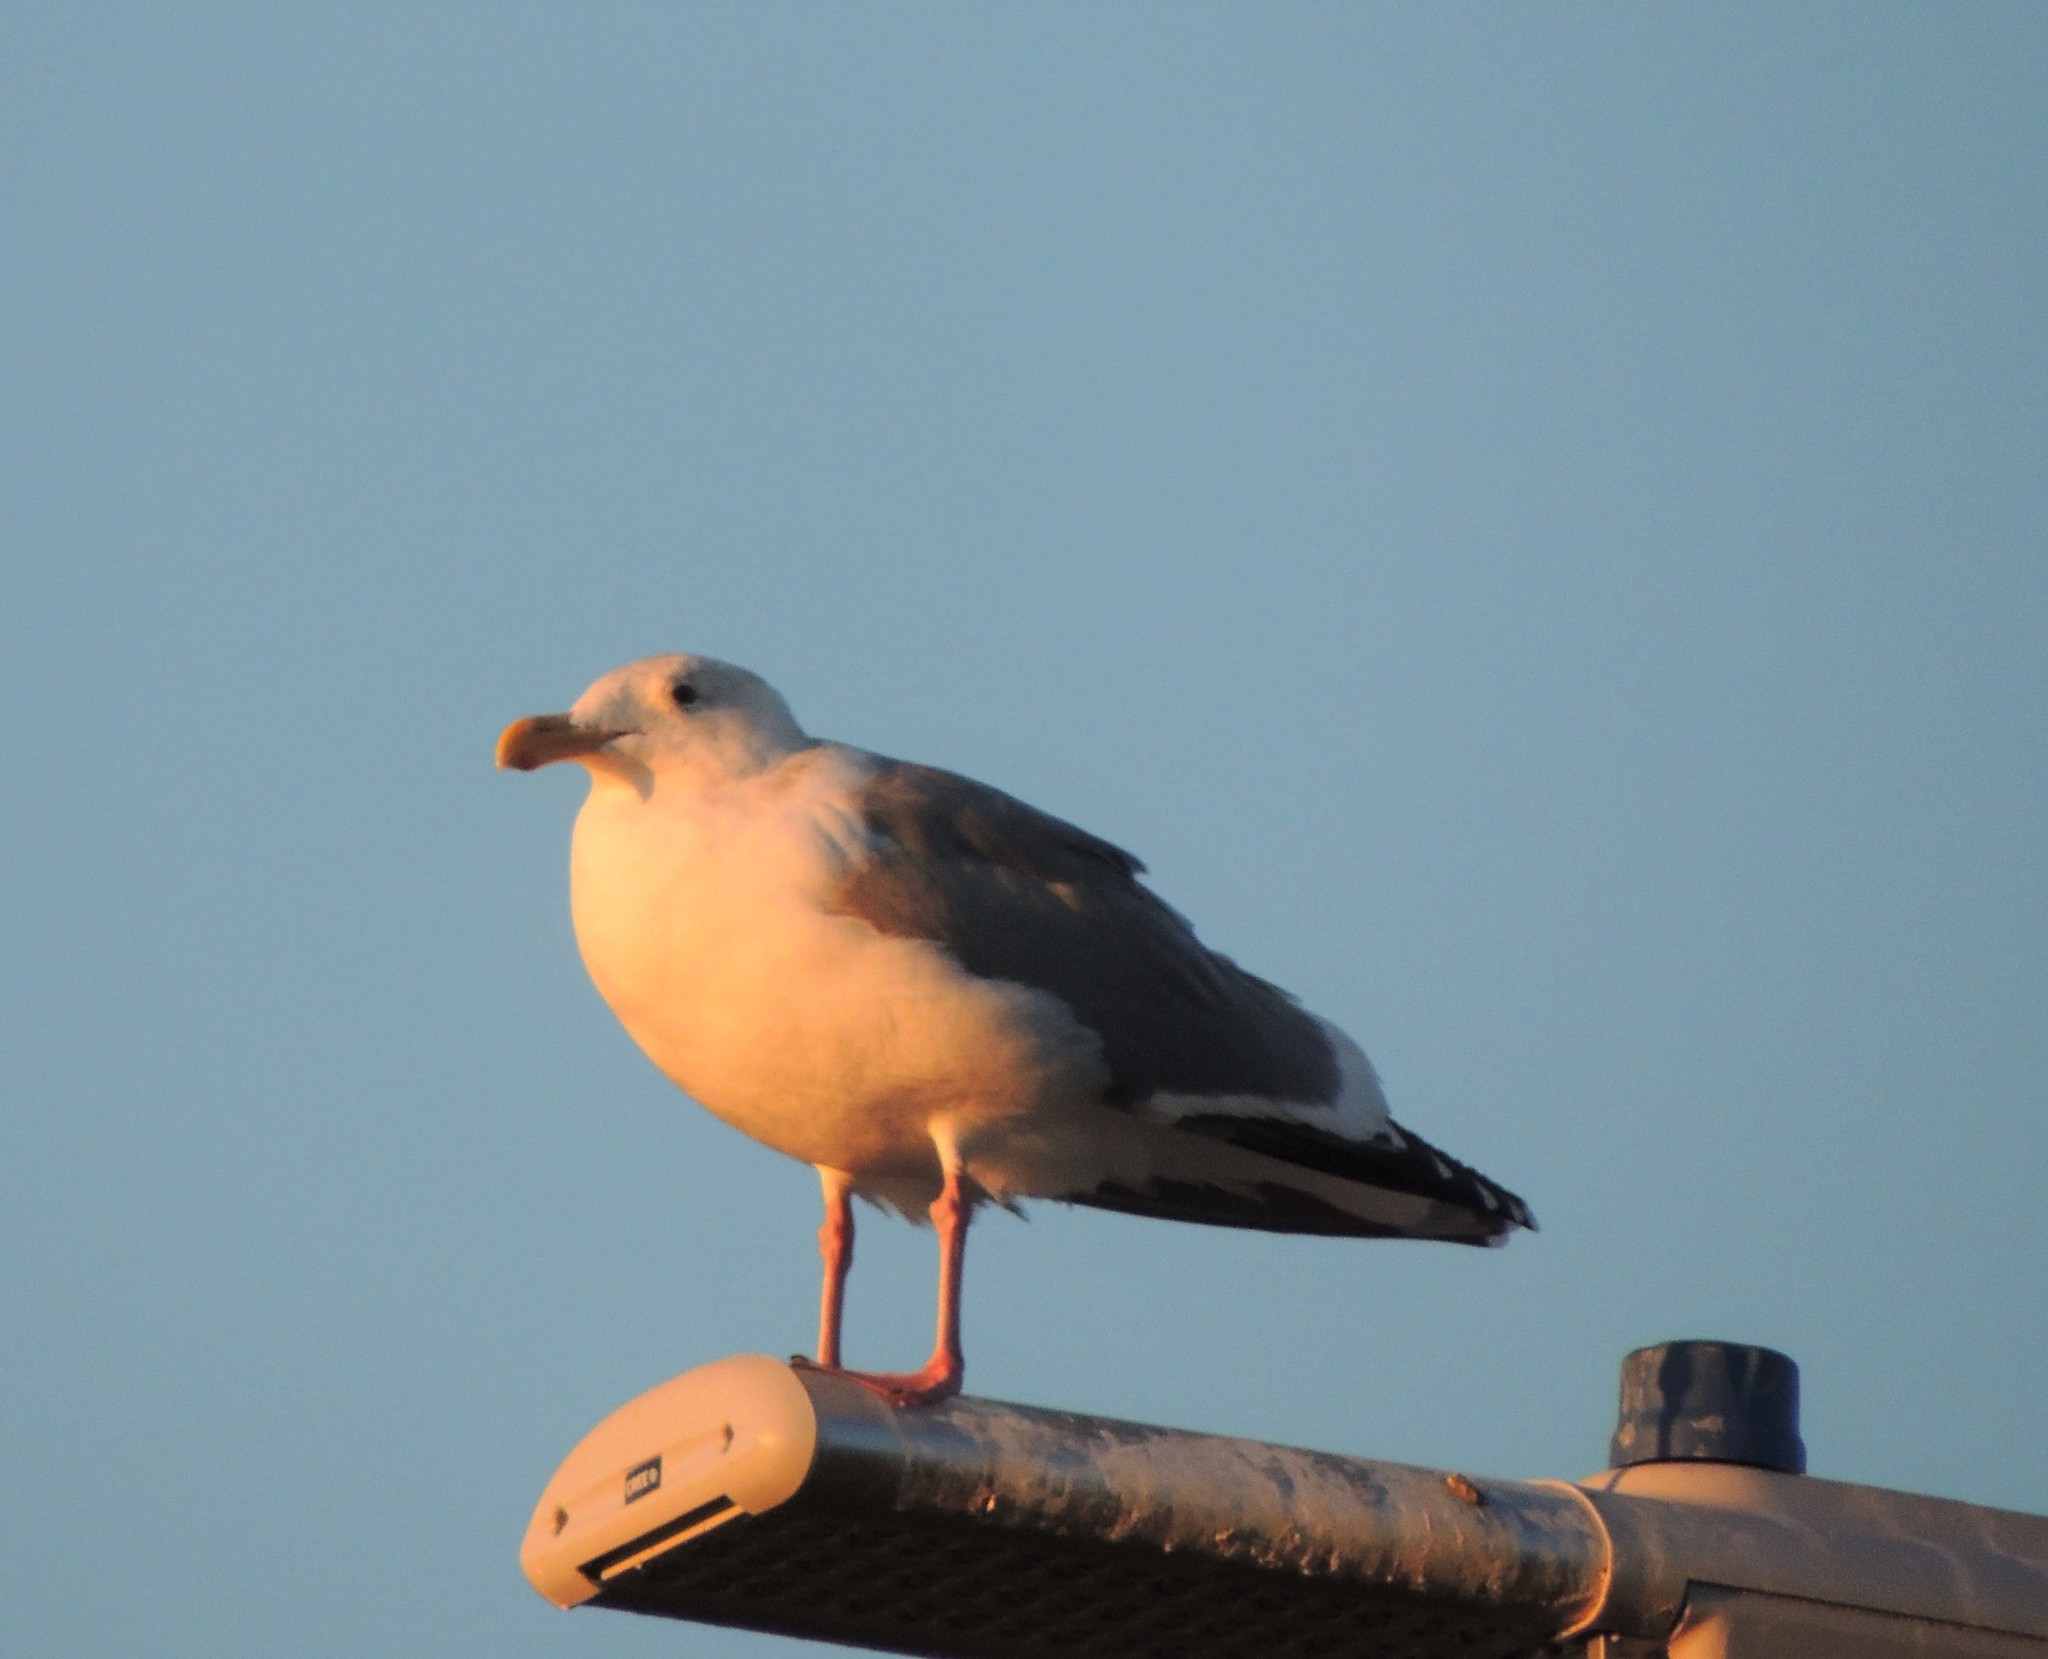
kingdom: Animalia
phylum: Chordata
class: Aves
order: Charadriiformes
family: Laridae
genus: Larus
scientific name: Larus occidentalis
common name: Western gull
